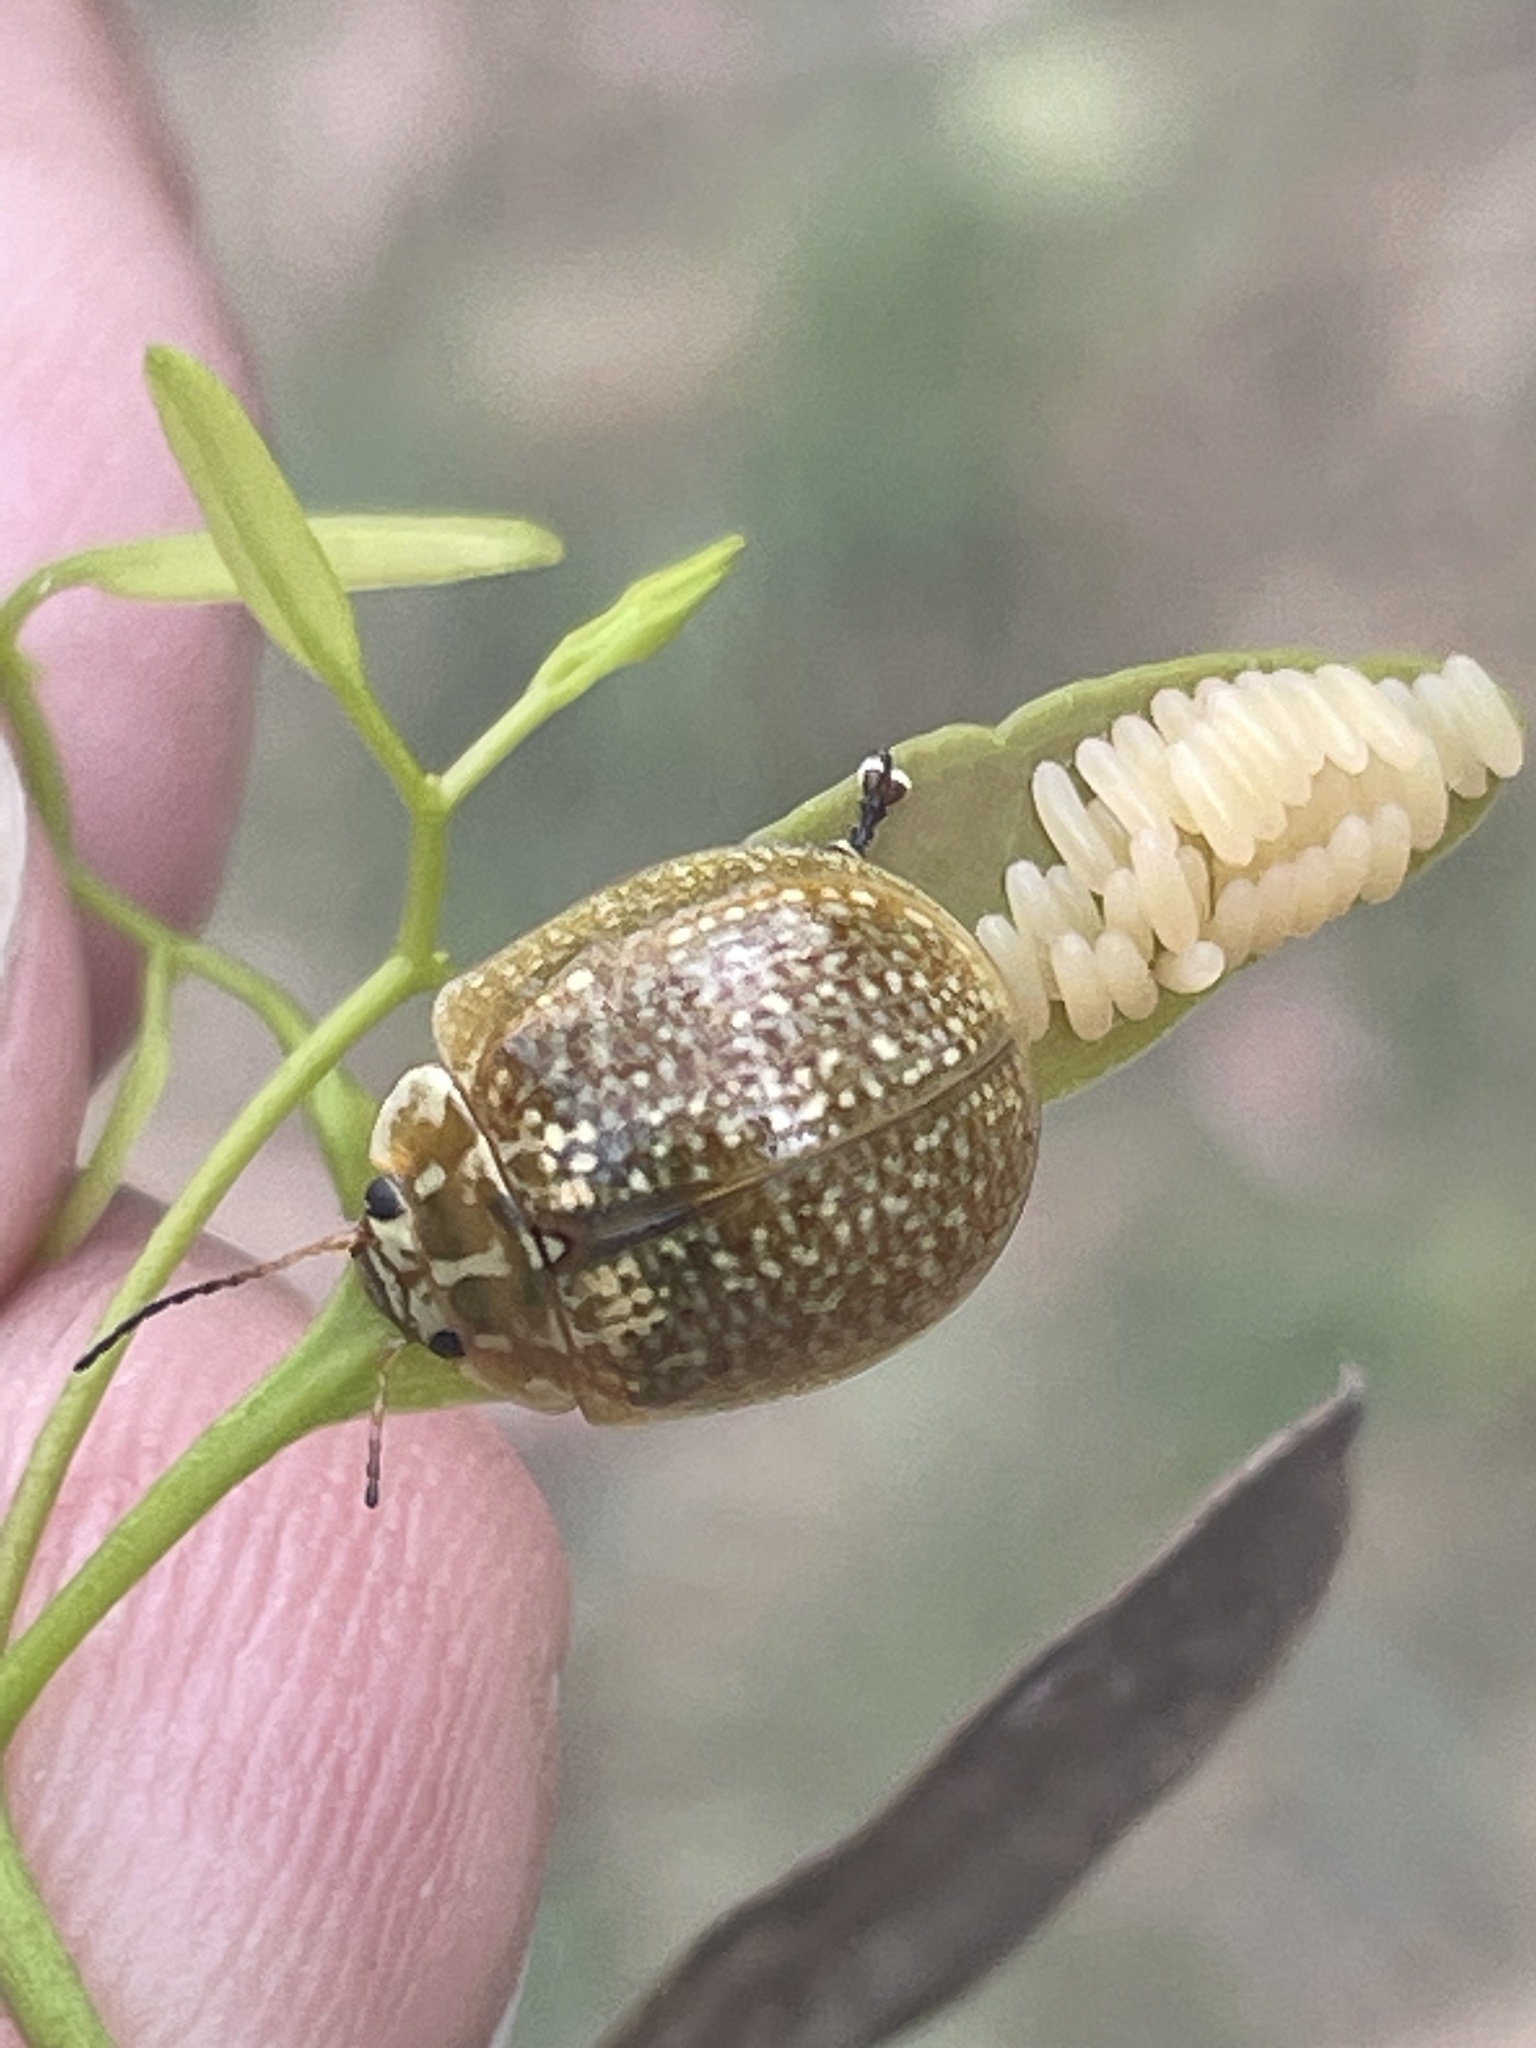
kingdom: Animalia
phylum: Arthropoda
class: Insecta
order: Coleoptera
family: Chrysomelidae
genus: Paropsisterna
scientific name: Paropsisterna cloelia
